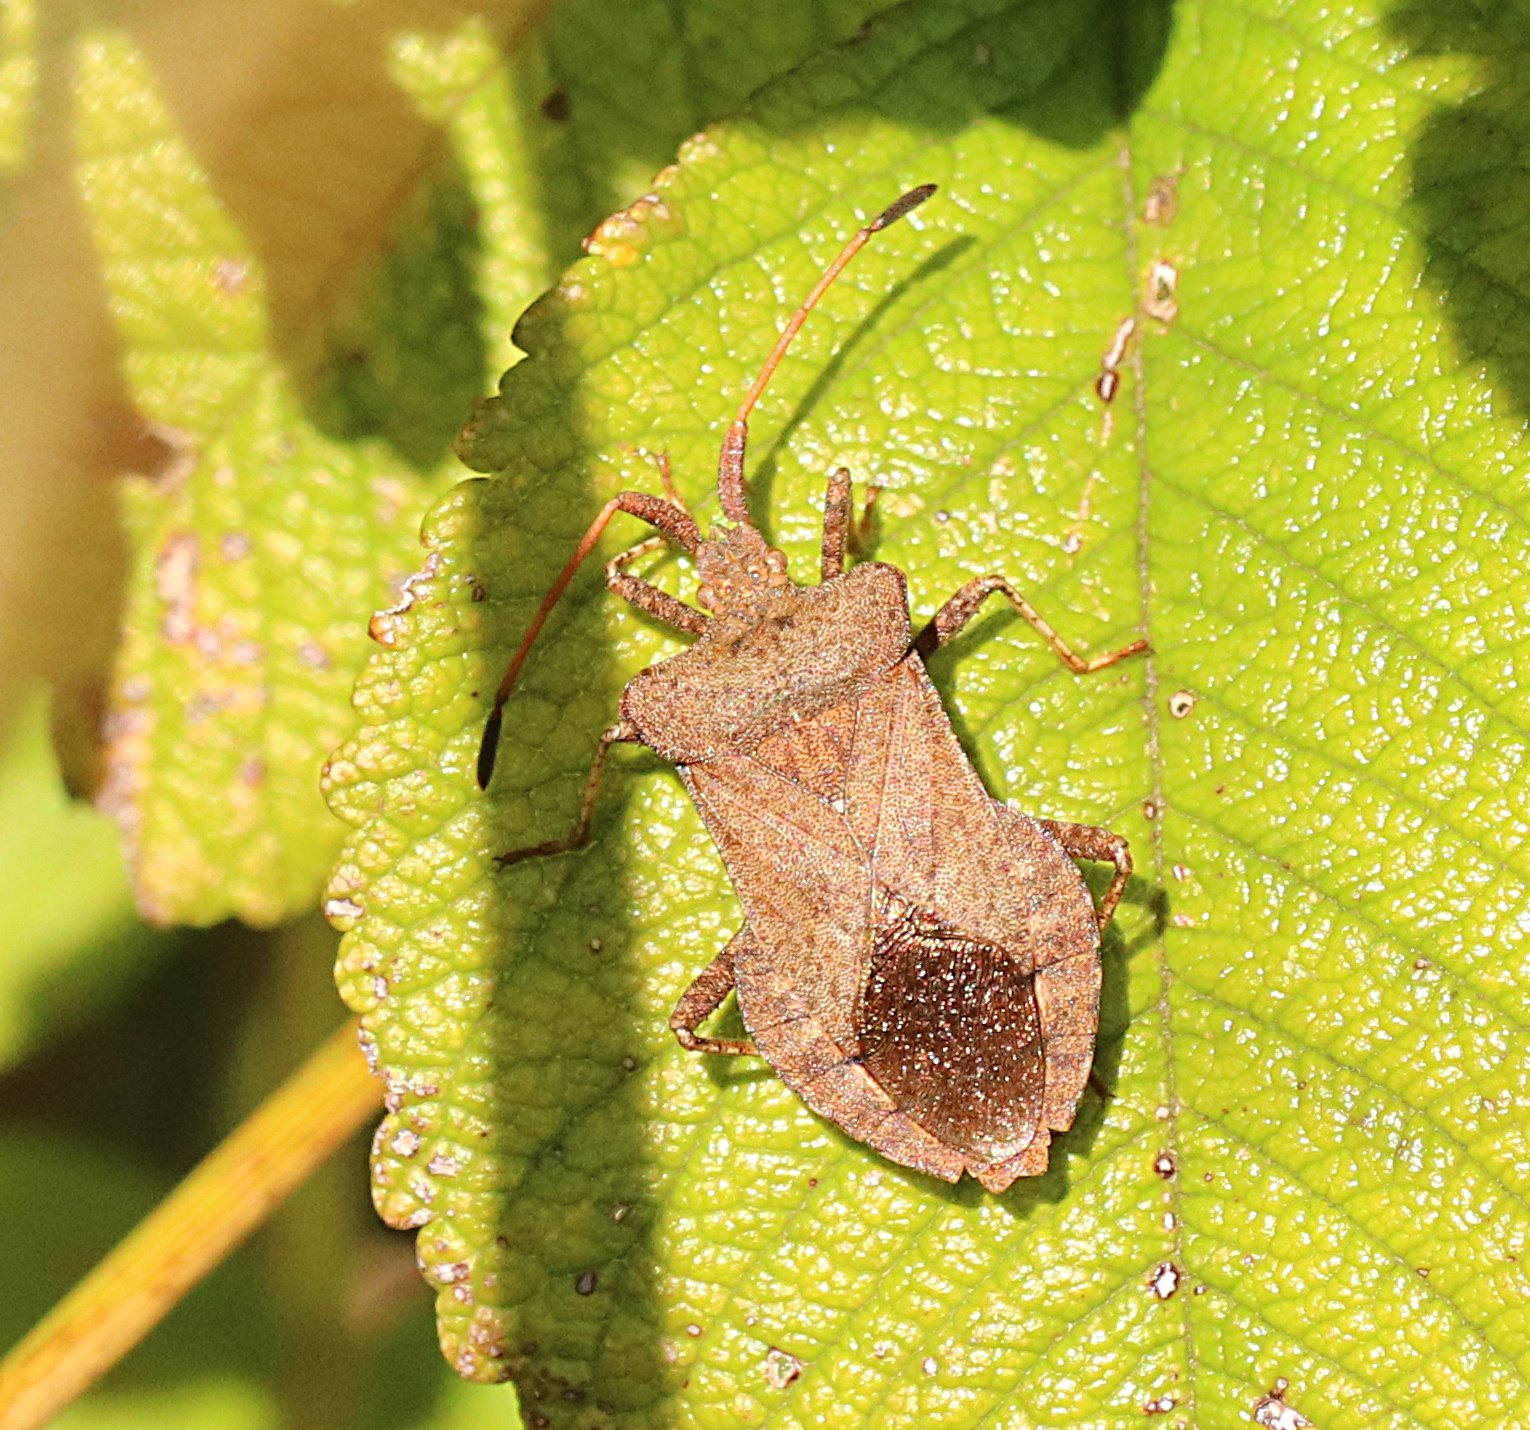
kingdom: Animalia
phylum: Arthropoda
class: Insecta
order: Hemiptera
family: Coreidae
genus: Coreus
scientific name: Coreus marginatus
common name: Dock bug
